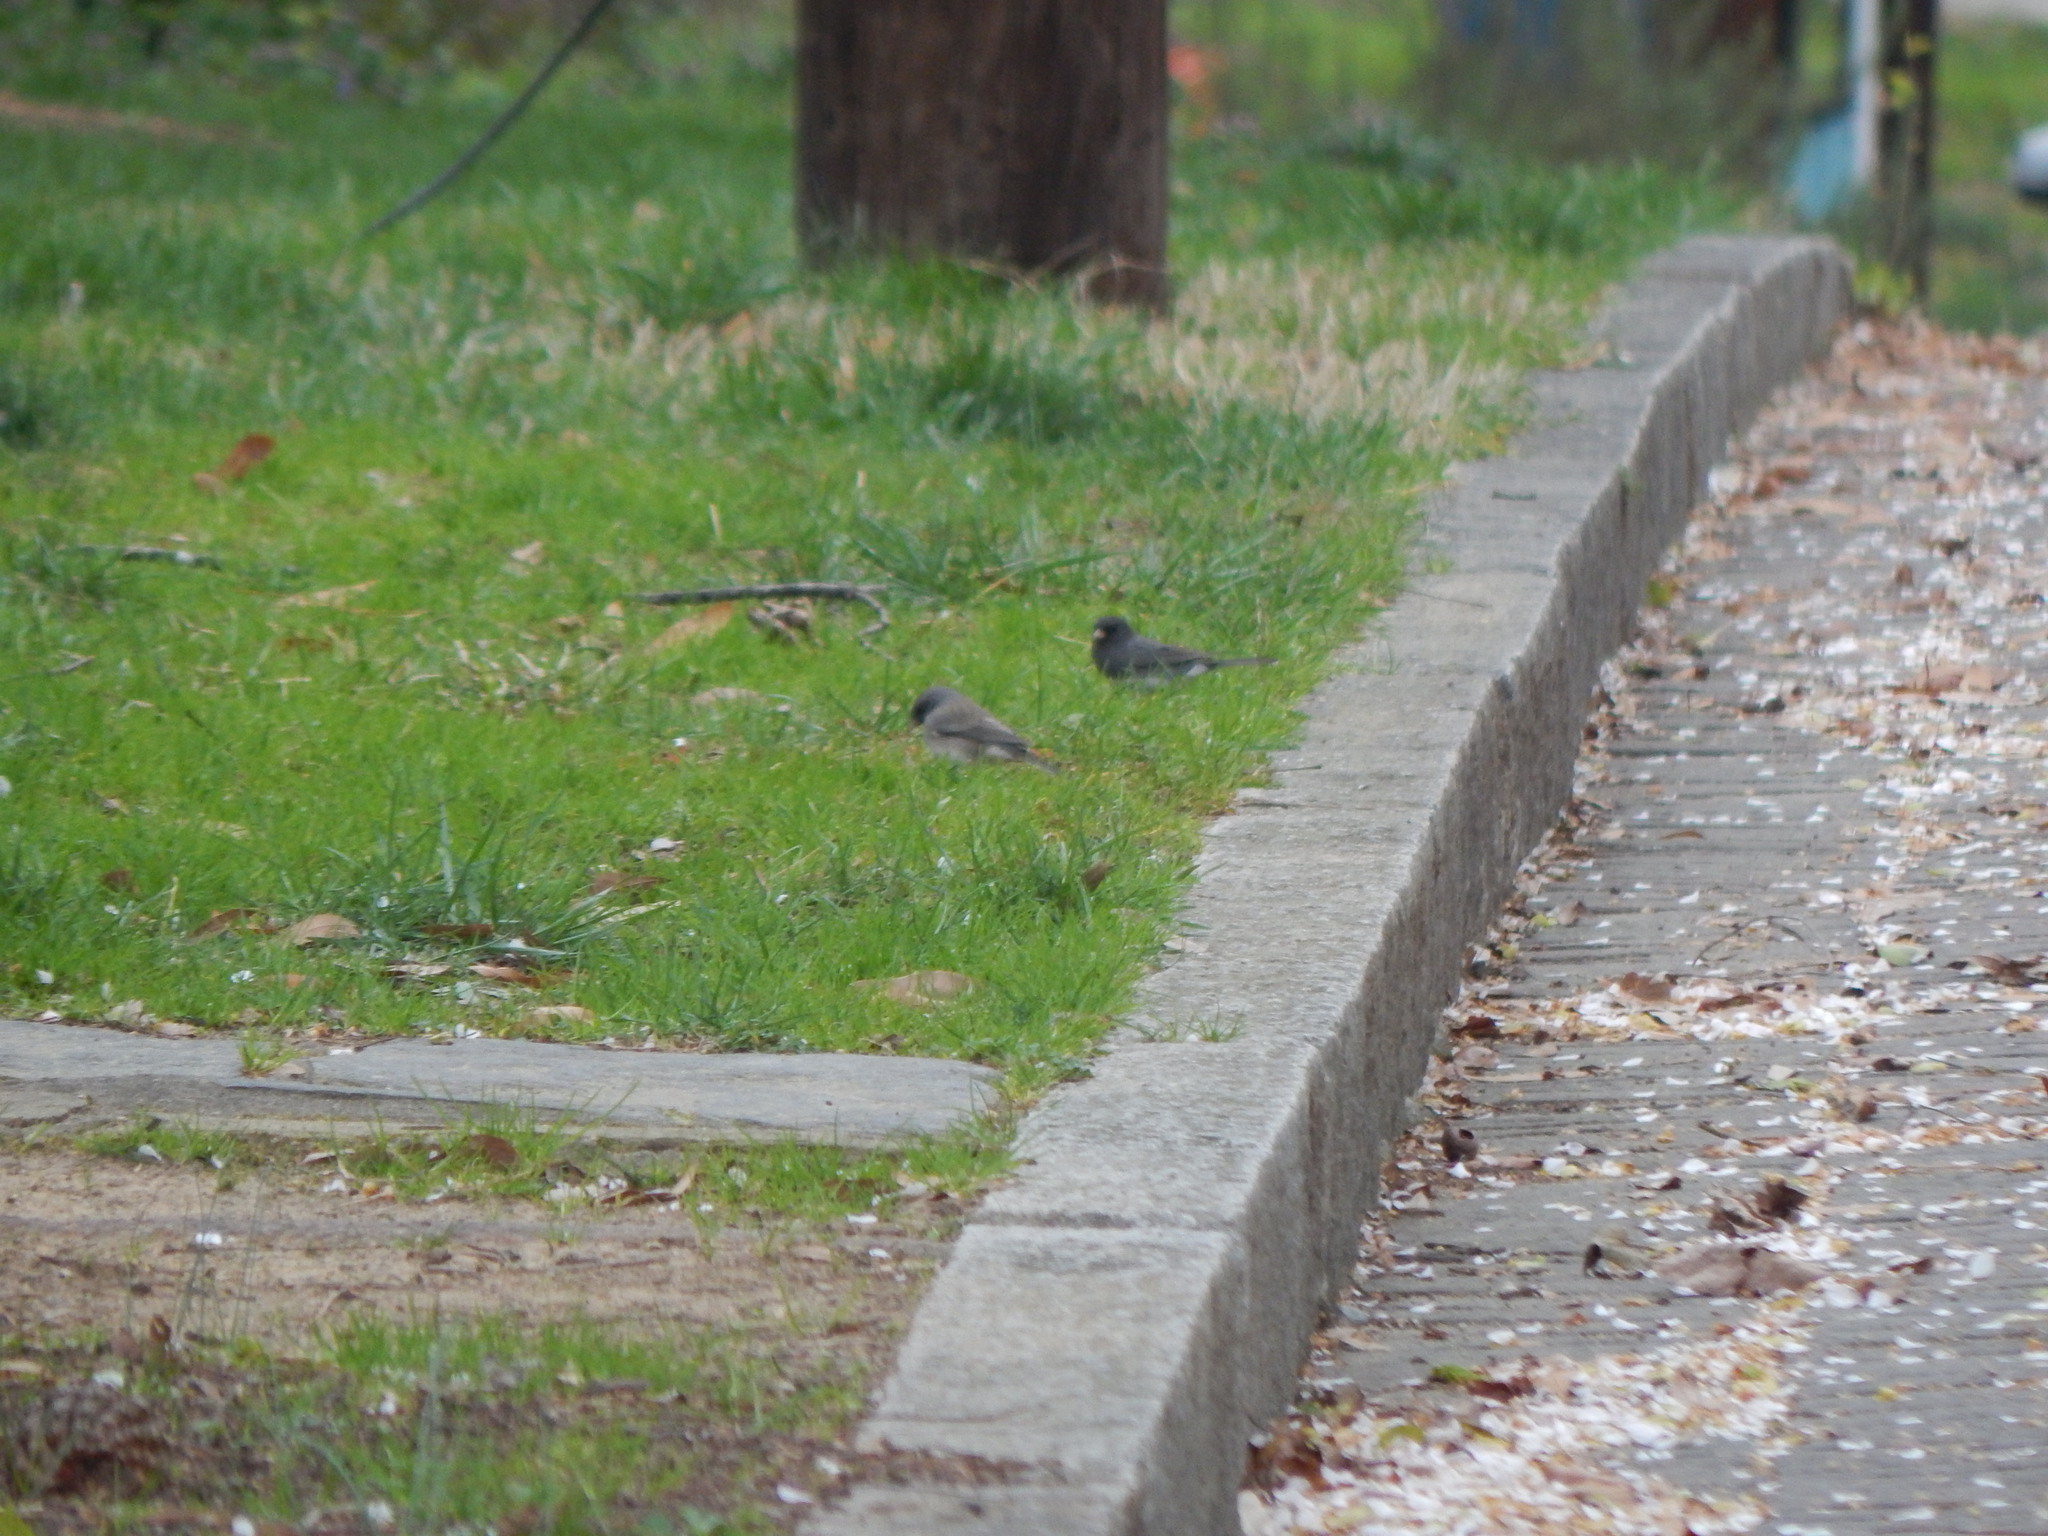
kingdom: Animalia
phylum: Chordata
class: Aves
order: Passeriformes
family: Passerellidae
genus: Junco
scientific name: Junco hyemalis
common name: Dark-eyed junco
